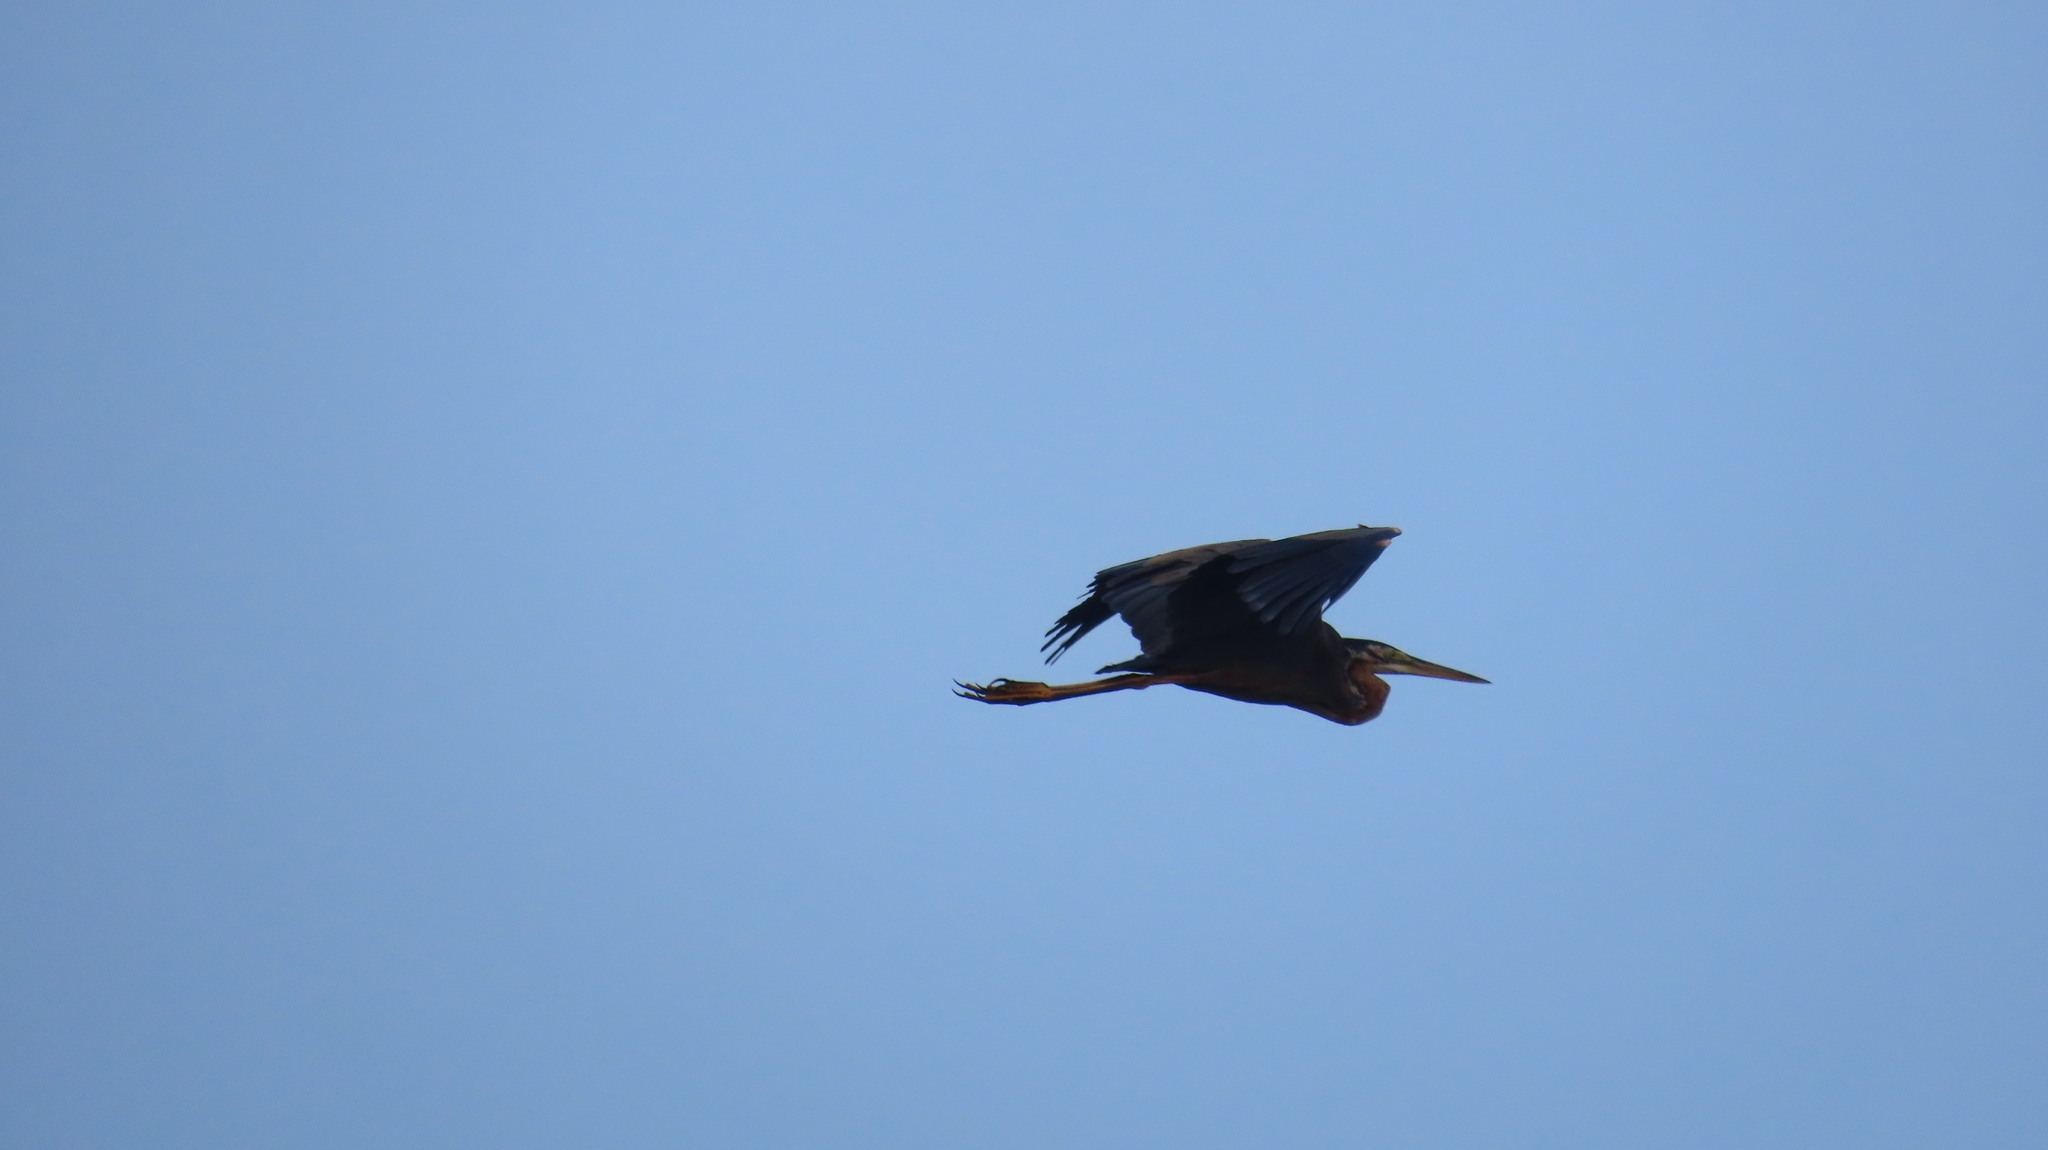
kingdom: Animalia
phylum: Chordata
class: Aves
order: Pelecaniformes
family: Ardeidae
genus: Ardea
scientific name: Ardea purpurea
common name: Purple heron
